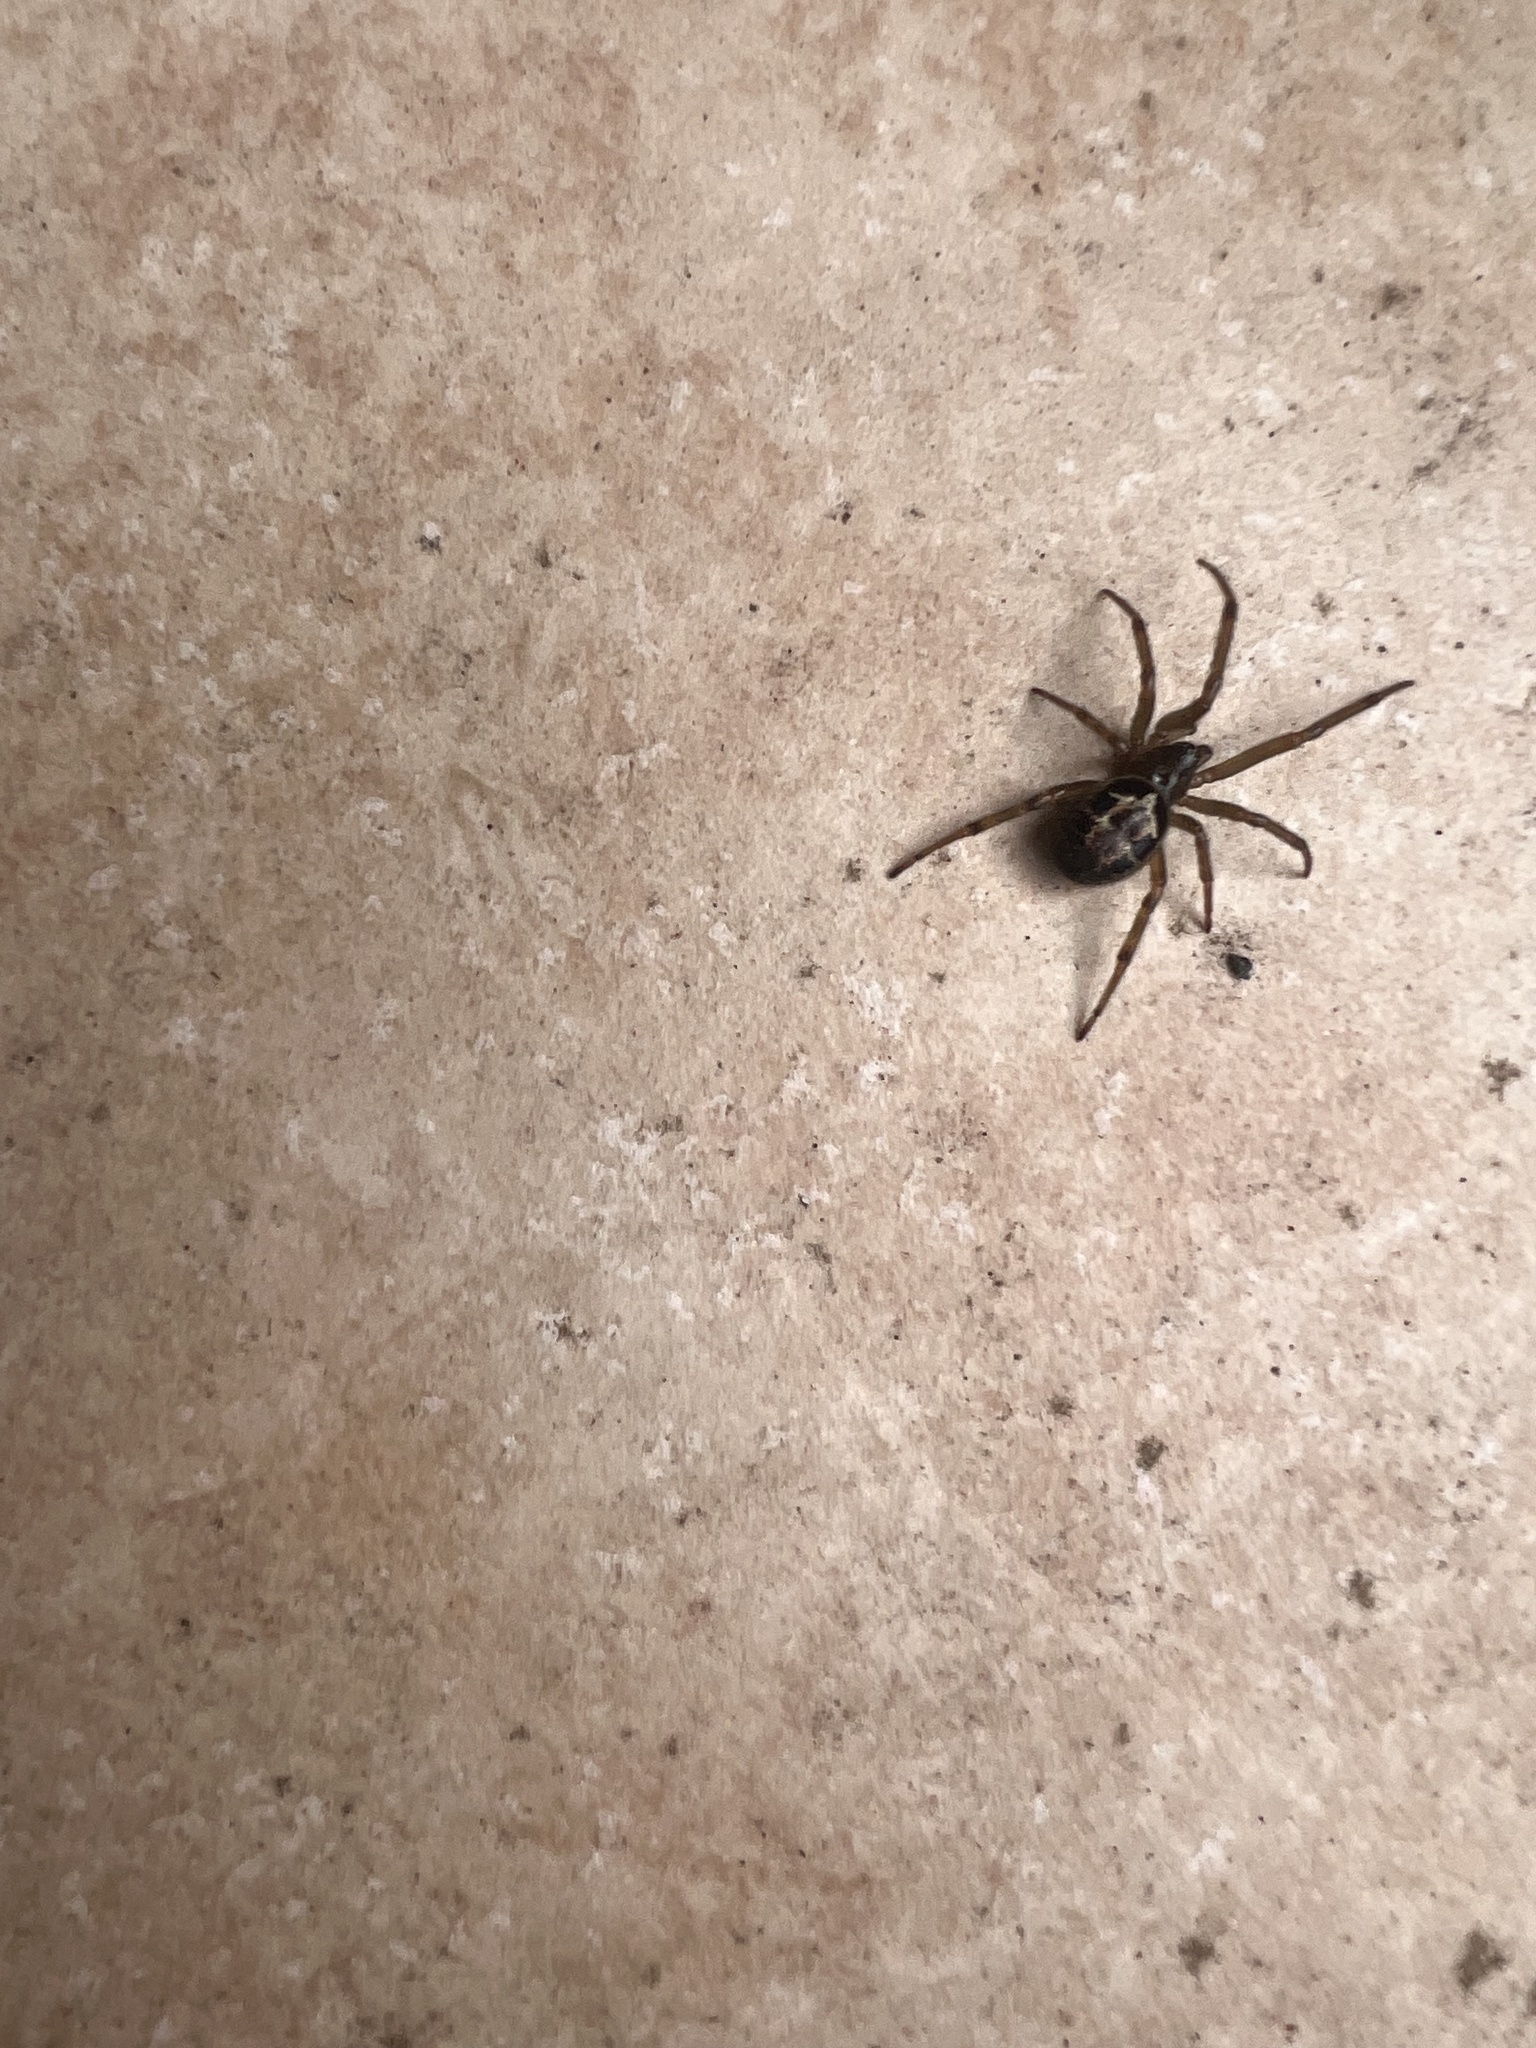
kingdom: Animalia
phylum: Arthropoda
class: Arachnida
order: Araneae
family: Theridiidae
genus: Steatoda
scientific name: Steatoda nobilis
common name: Cobweb weaver
